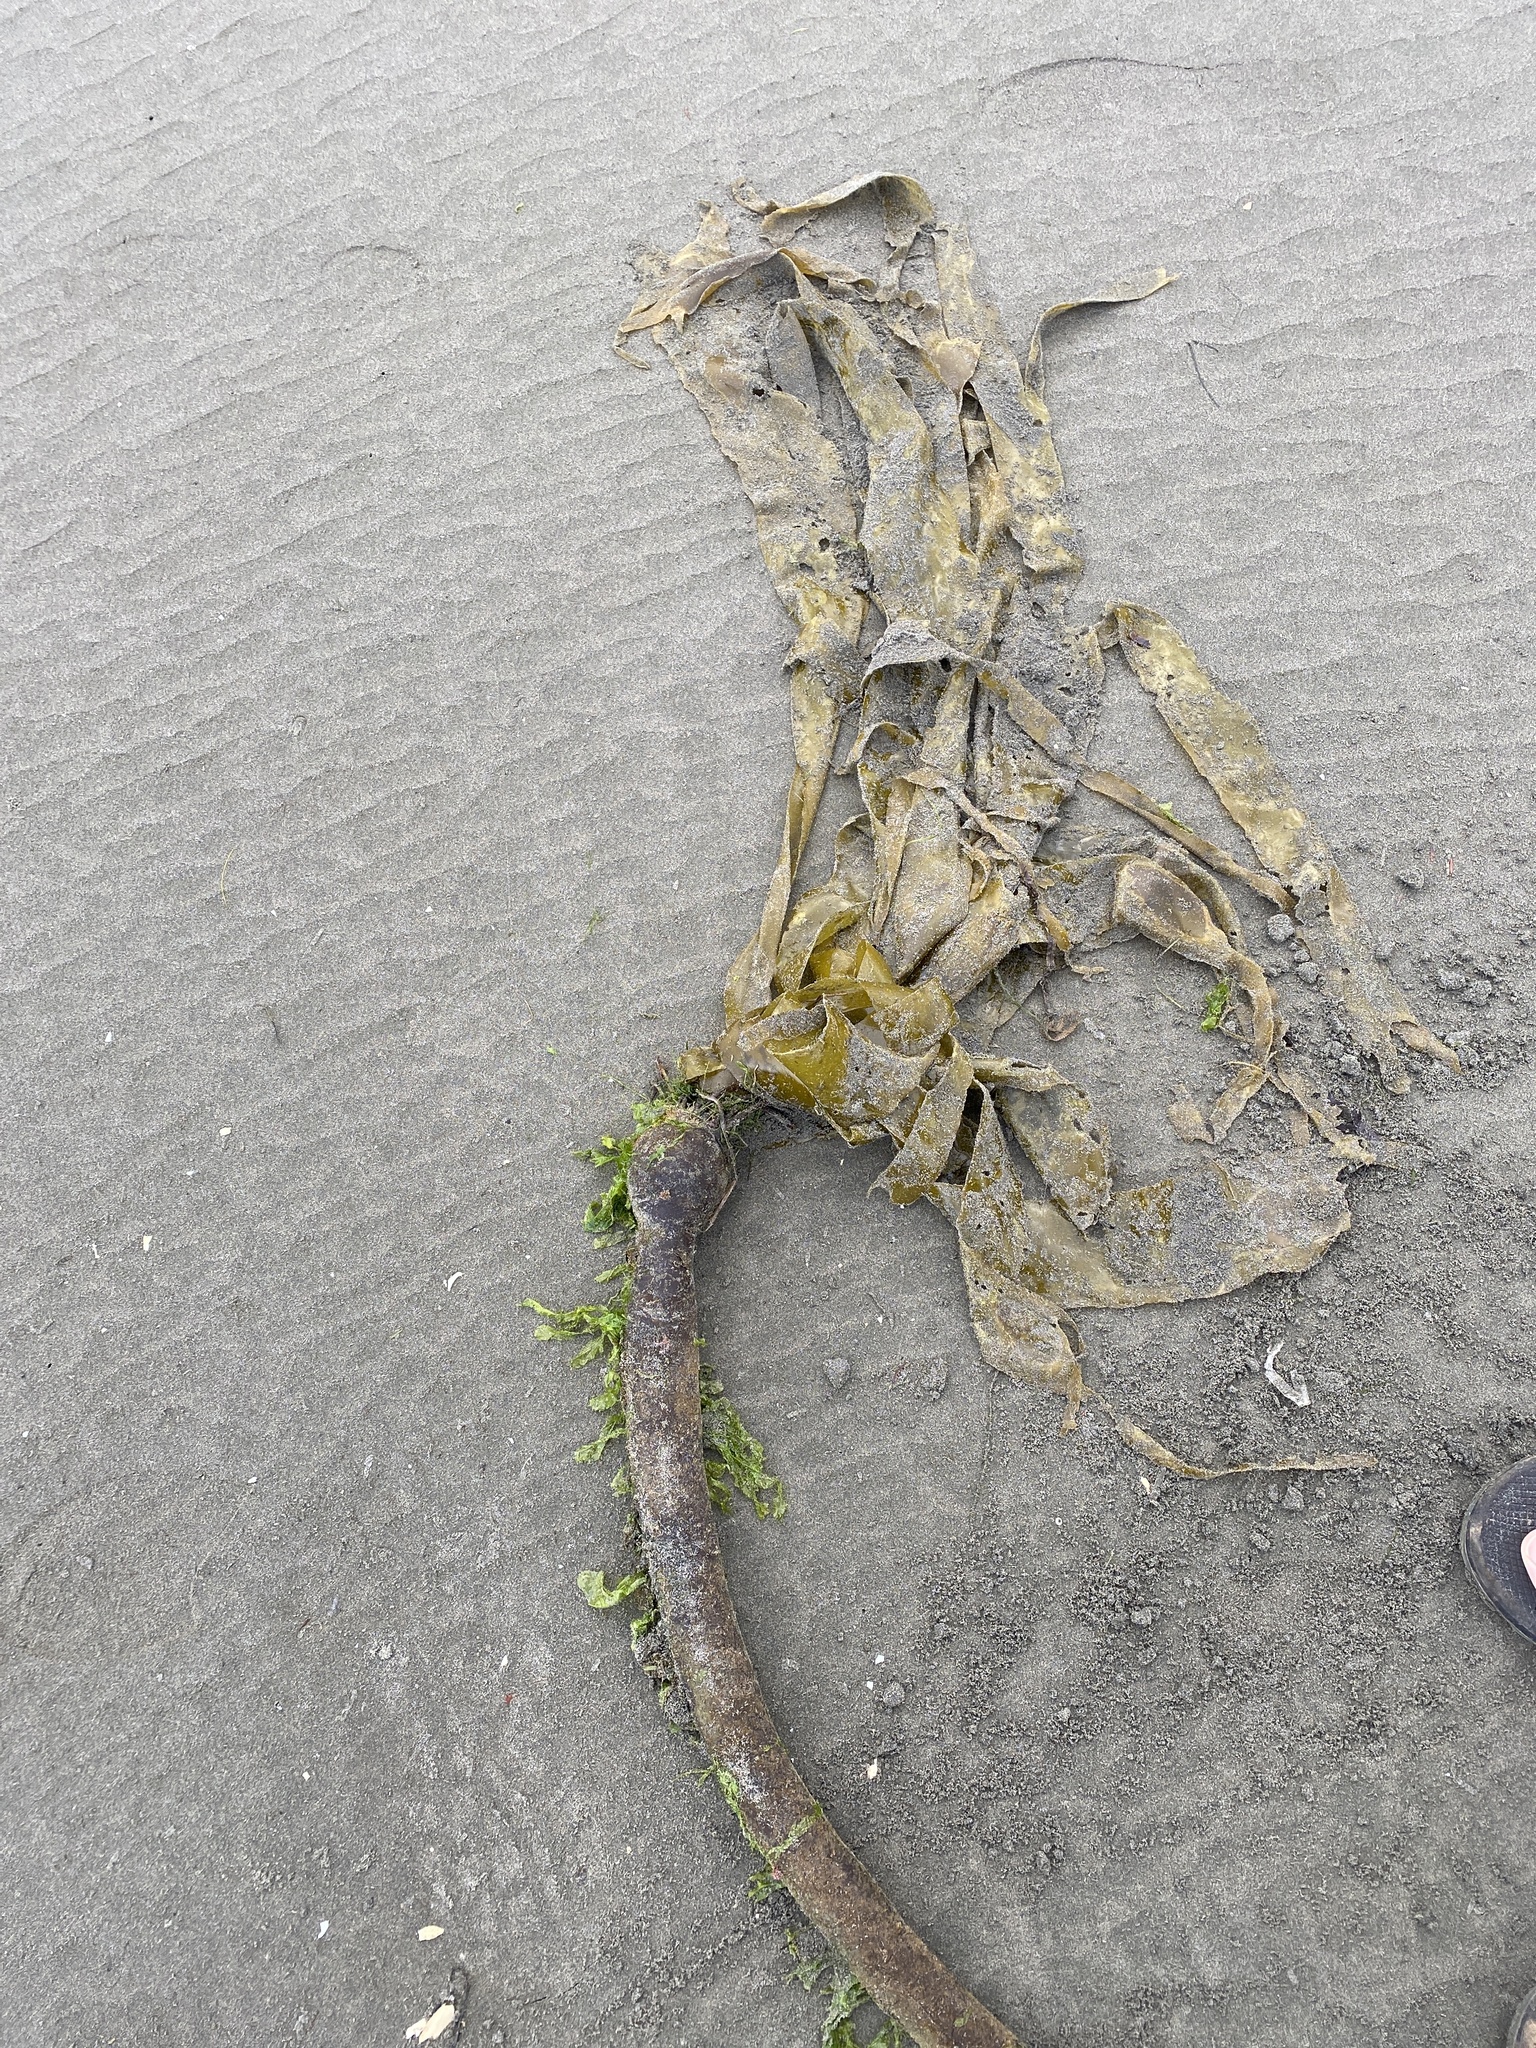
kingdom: Chromista
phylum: Ochrophyta
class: Phaeophyceae
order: Laminariales
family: Laminariaceae
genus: Nereocystis
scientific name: Nereocystis luetkeana
